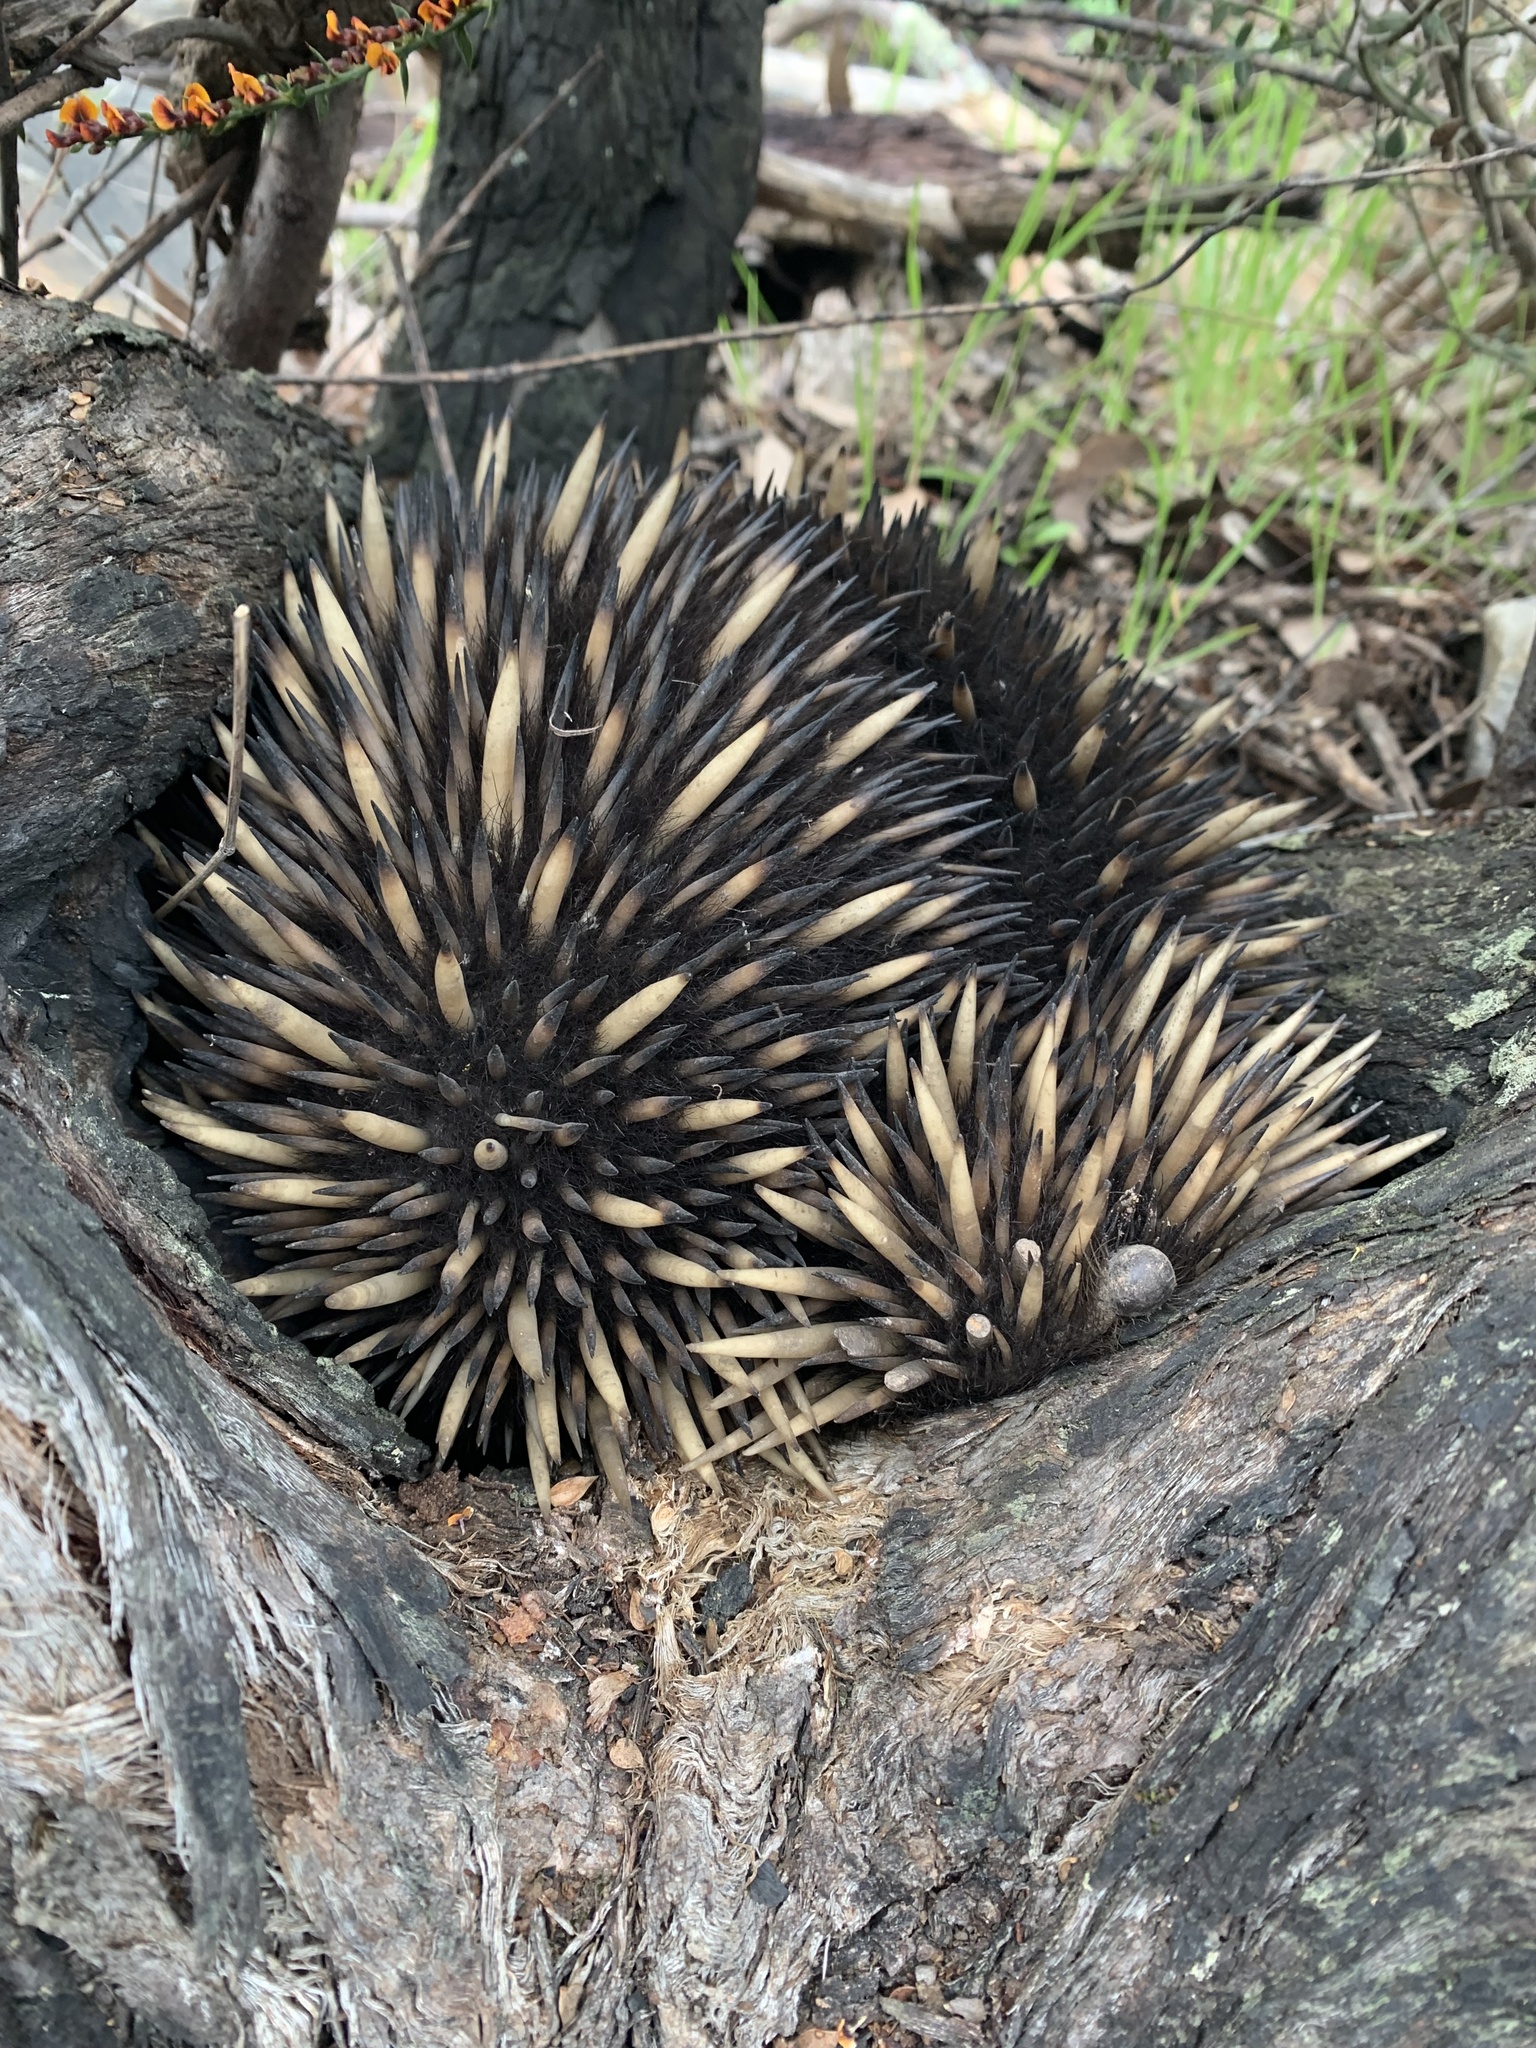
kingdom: Animalia
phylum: Chordata
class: Mammalia
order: Monotremata
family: Tachyglossidae
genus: Tachyglossus
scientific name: Tachyglossus aculeatus
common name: Short-beaked echidna
